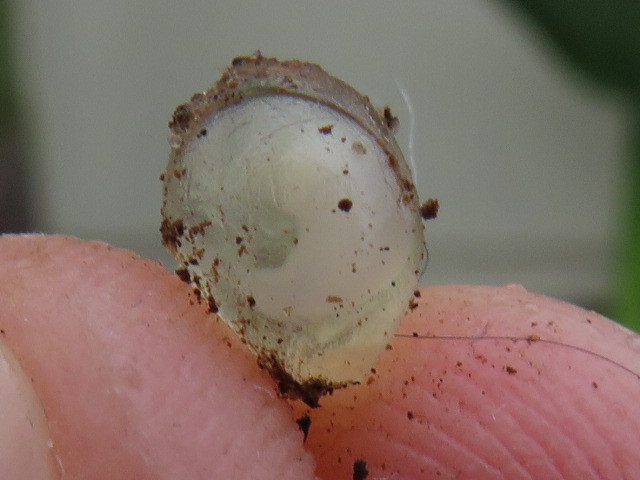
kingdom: Animalia
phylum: Mollusca
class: Gastropoda
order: Stylommatophora
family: Limacidae
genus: Limacus
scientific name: Limacus flavus
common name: Yellow gardenslug
